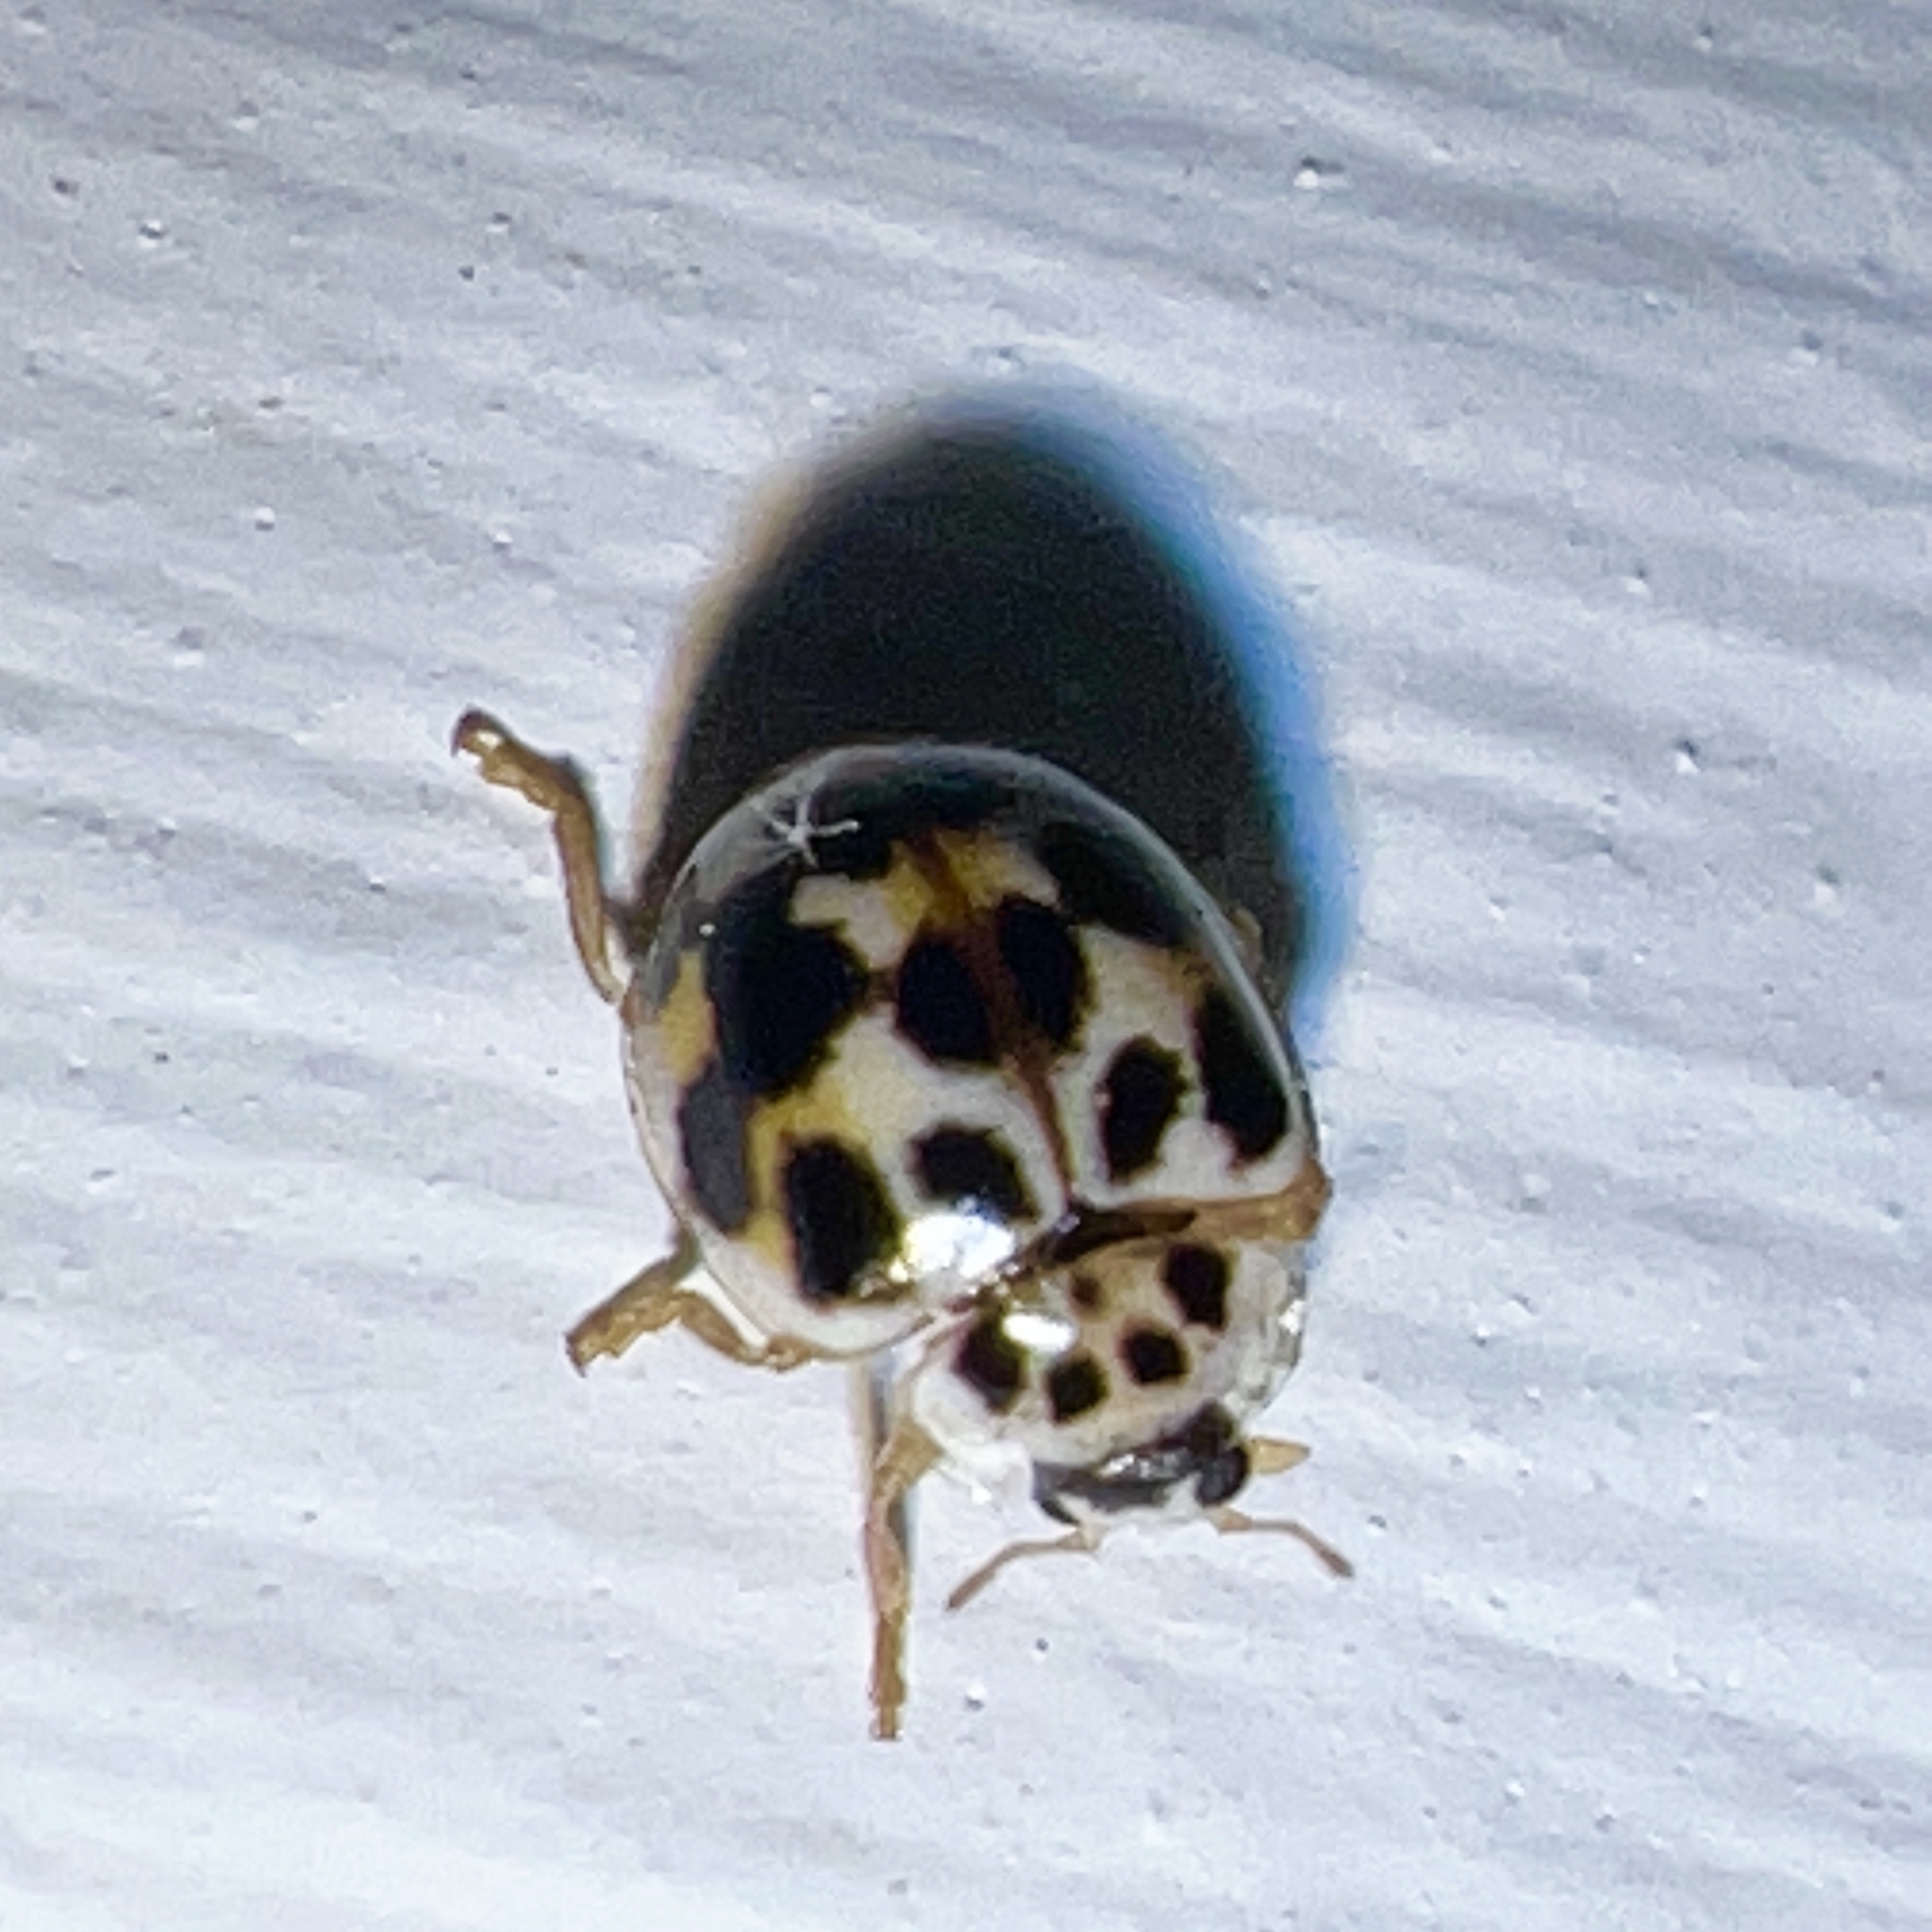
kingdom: Animalia
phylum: Arthropoda
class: Insecta
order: Coleoptera
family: Coccinellidae
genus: Psyllobora
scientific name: Psyllobora vigintimaculata
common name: Ladybird beetle
